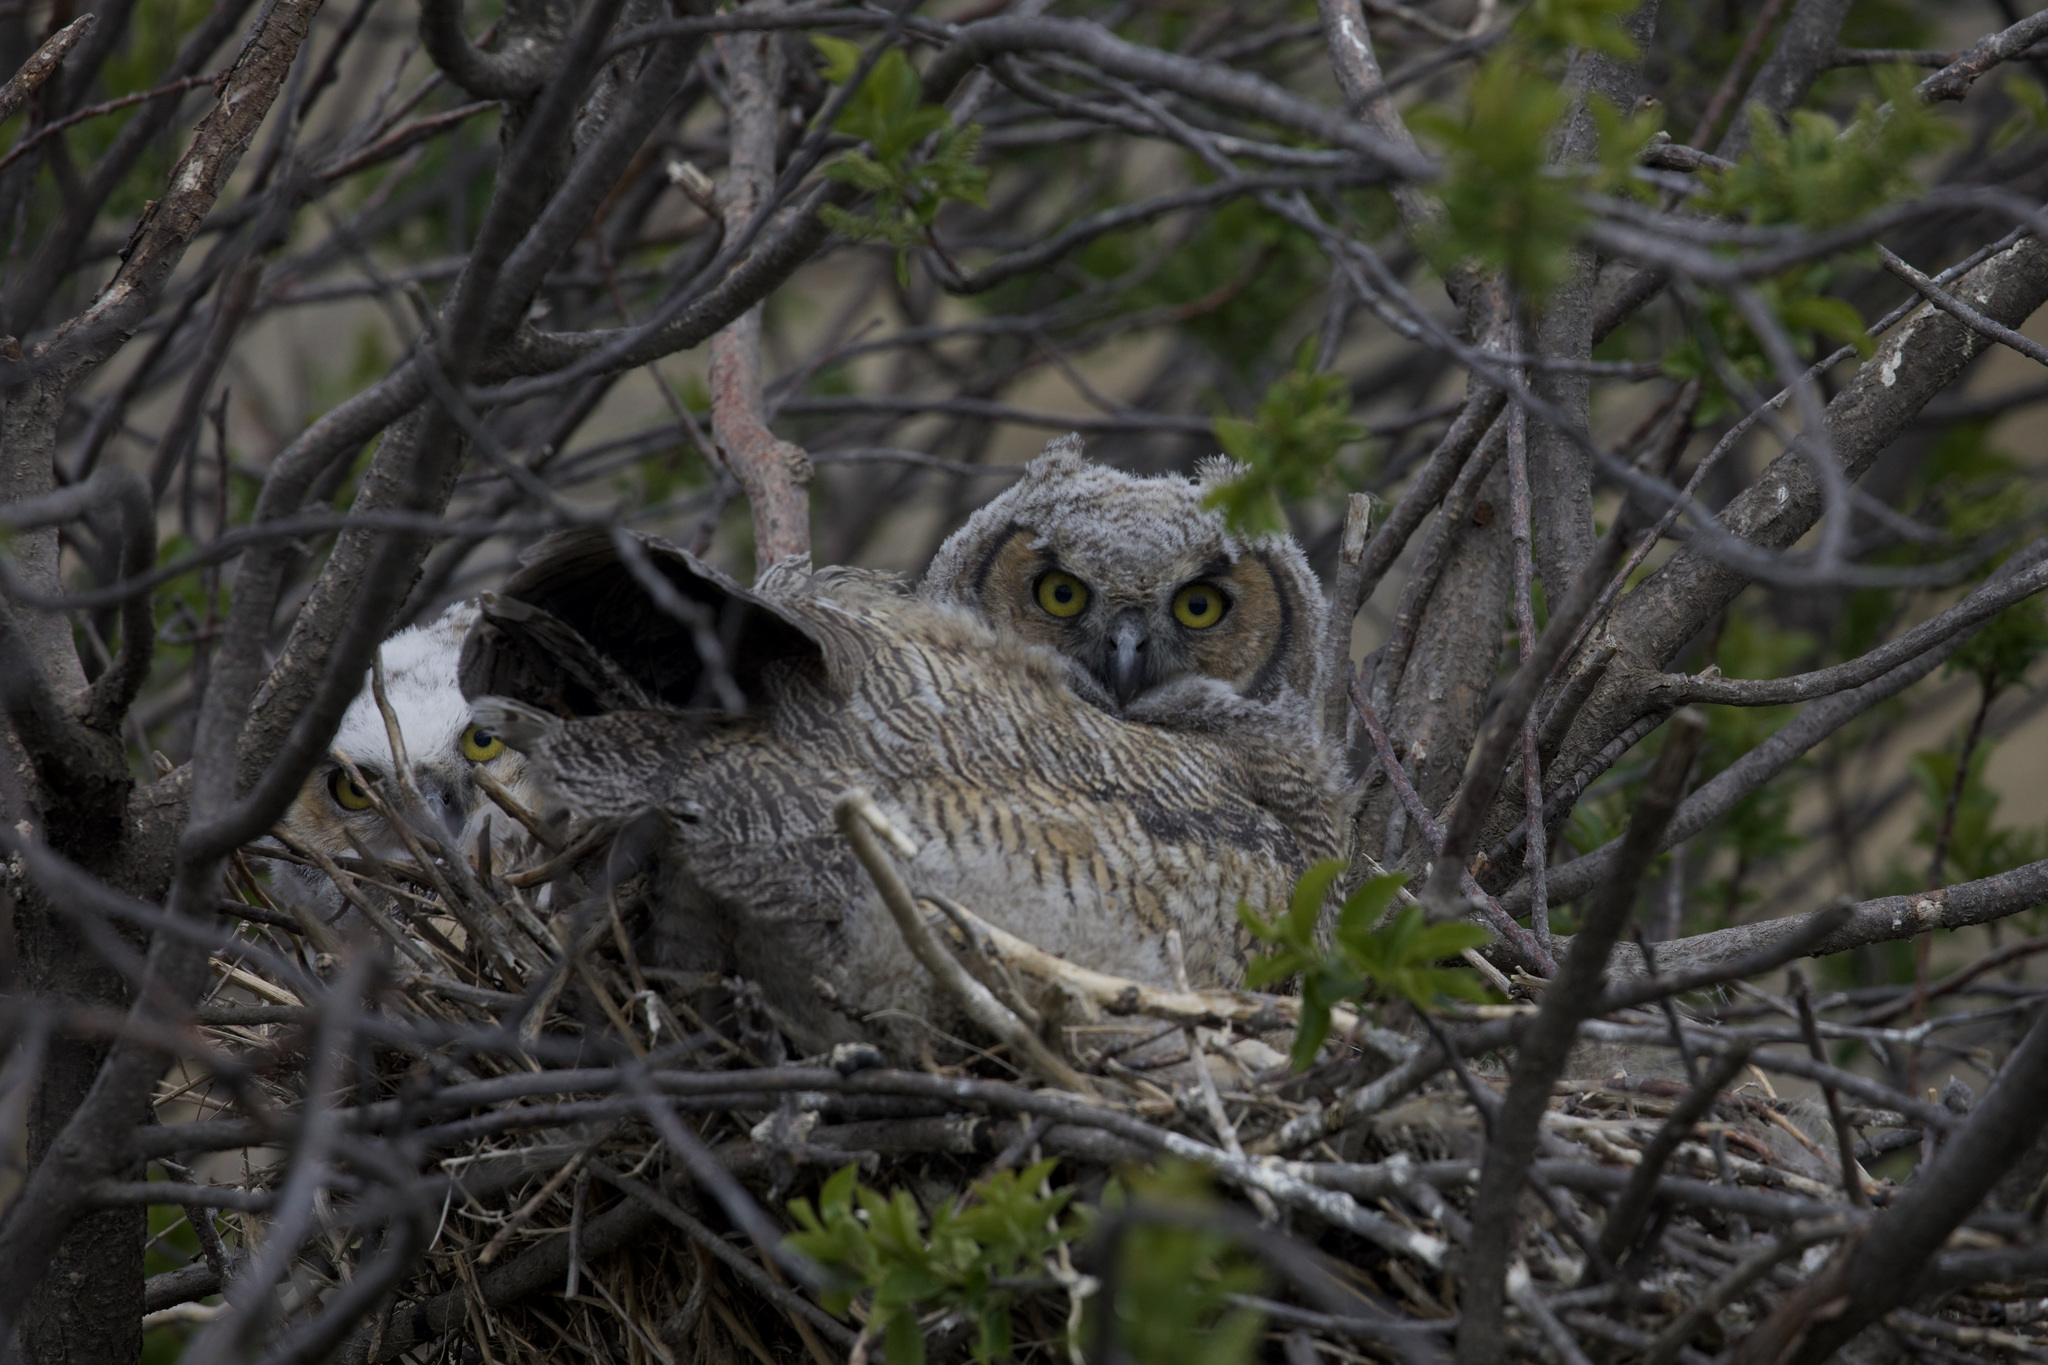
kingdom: Animalia
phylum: Chordata
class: Aves
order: Strigiformes
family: Strigidae
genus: Bubo
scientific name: Bubo virginianus
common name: Great horned owl
